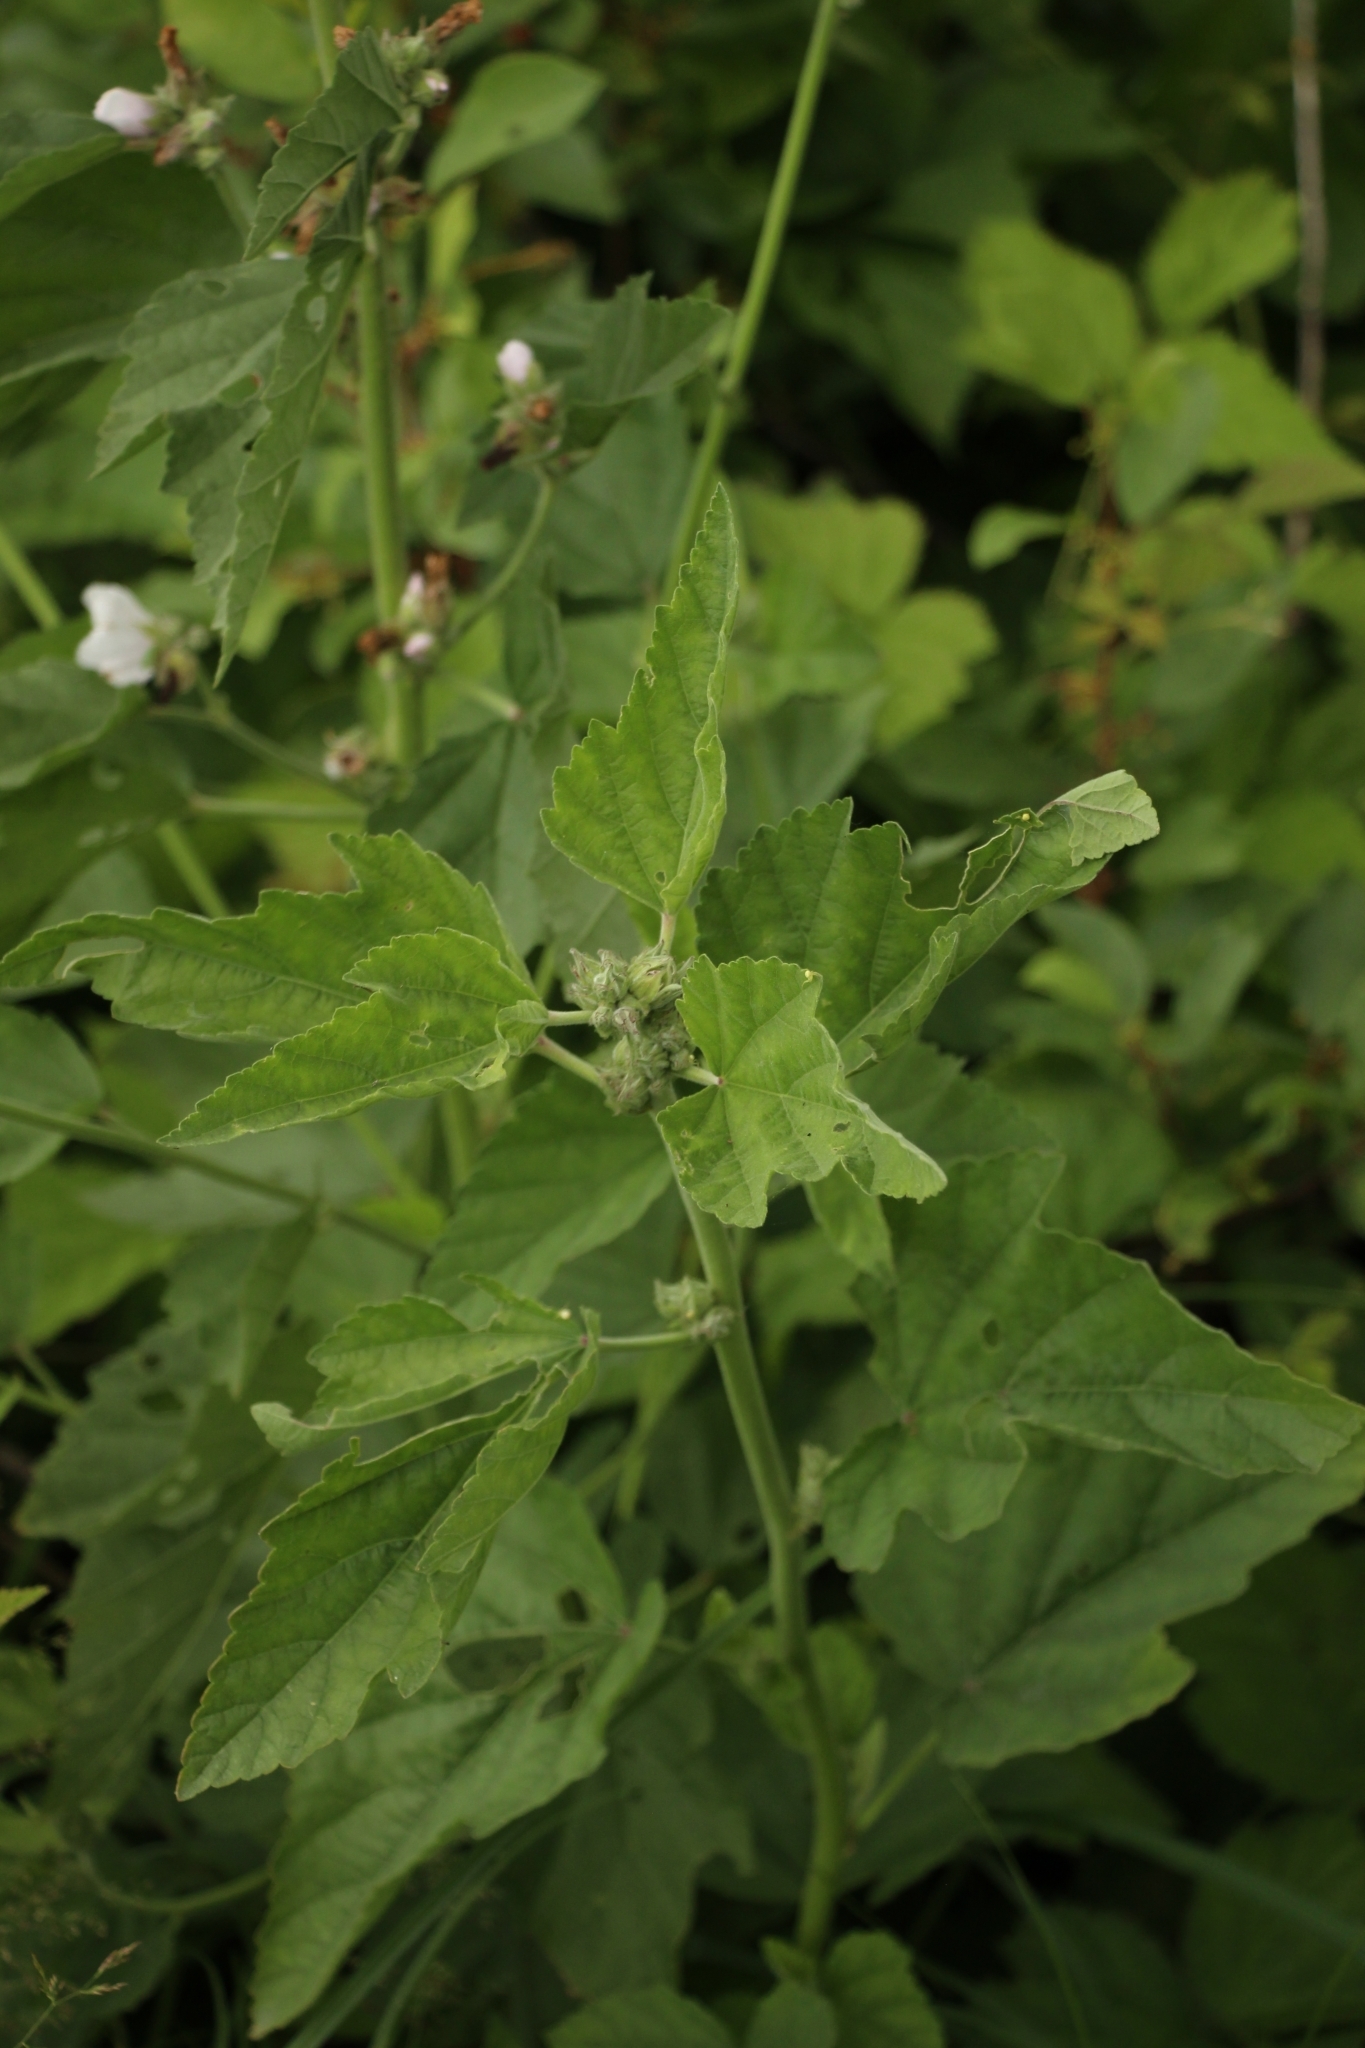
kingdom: Plantae
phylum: Tracheophyta
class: Magnoliopsida
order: Malvales
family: Malvaceae
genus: Althaea
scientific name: Althaea officinalis
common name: Marsh-mallow
